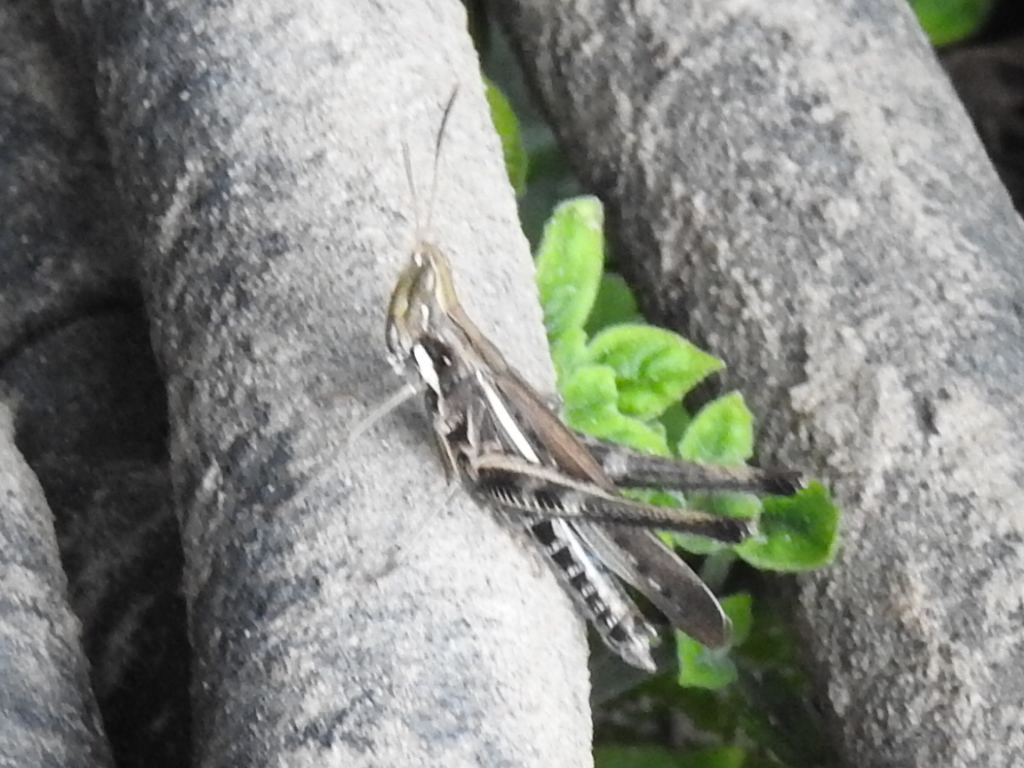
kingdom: Animalia
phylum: Arthropoda
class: Insecta
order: Orthoptera
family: Acrididae
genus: Syrbula
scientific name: Syrbula montezuma
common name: Montezuma's grasshopper
